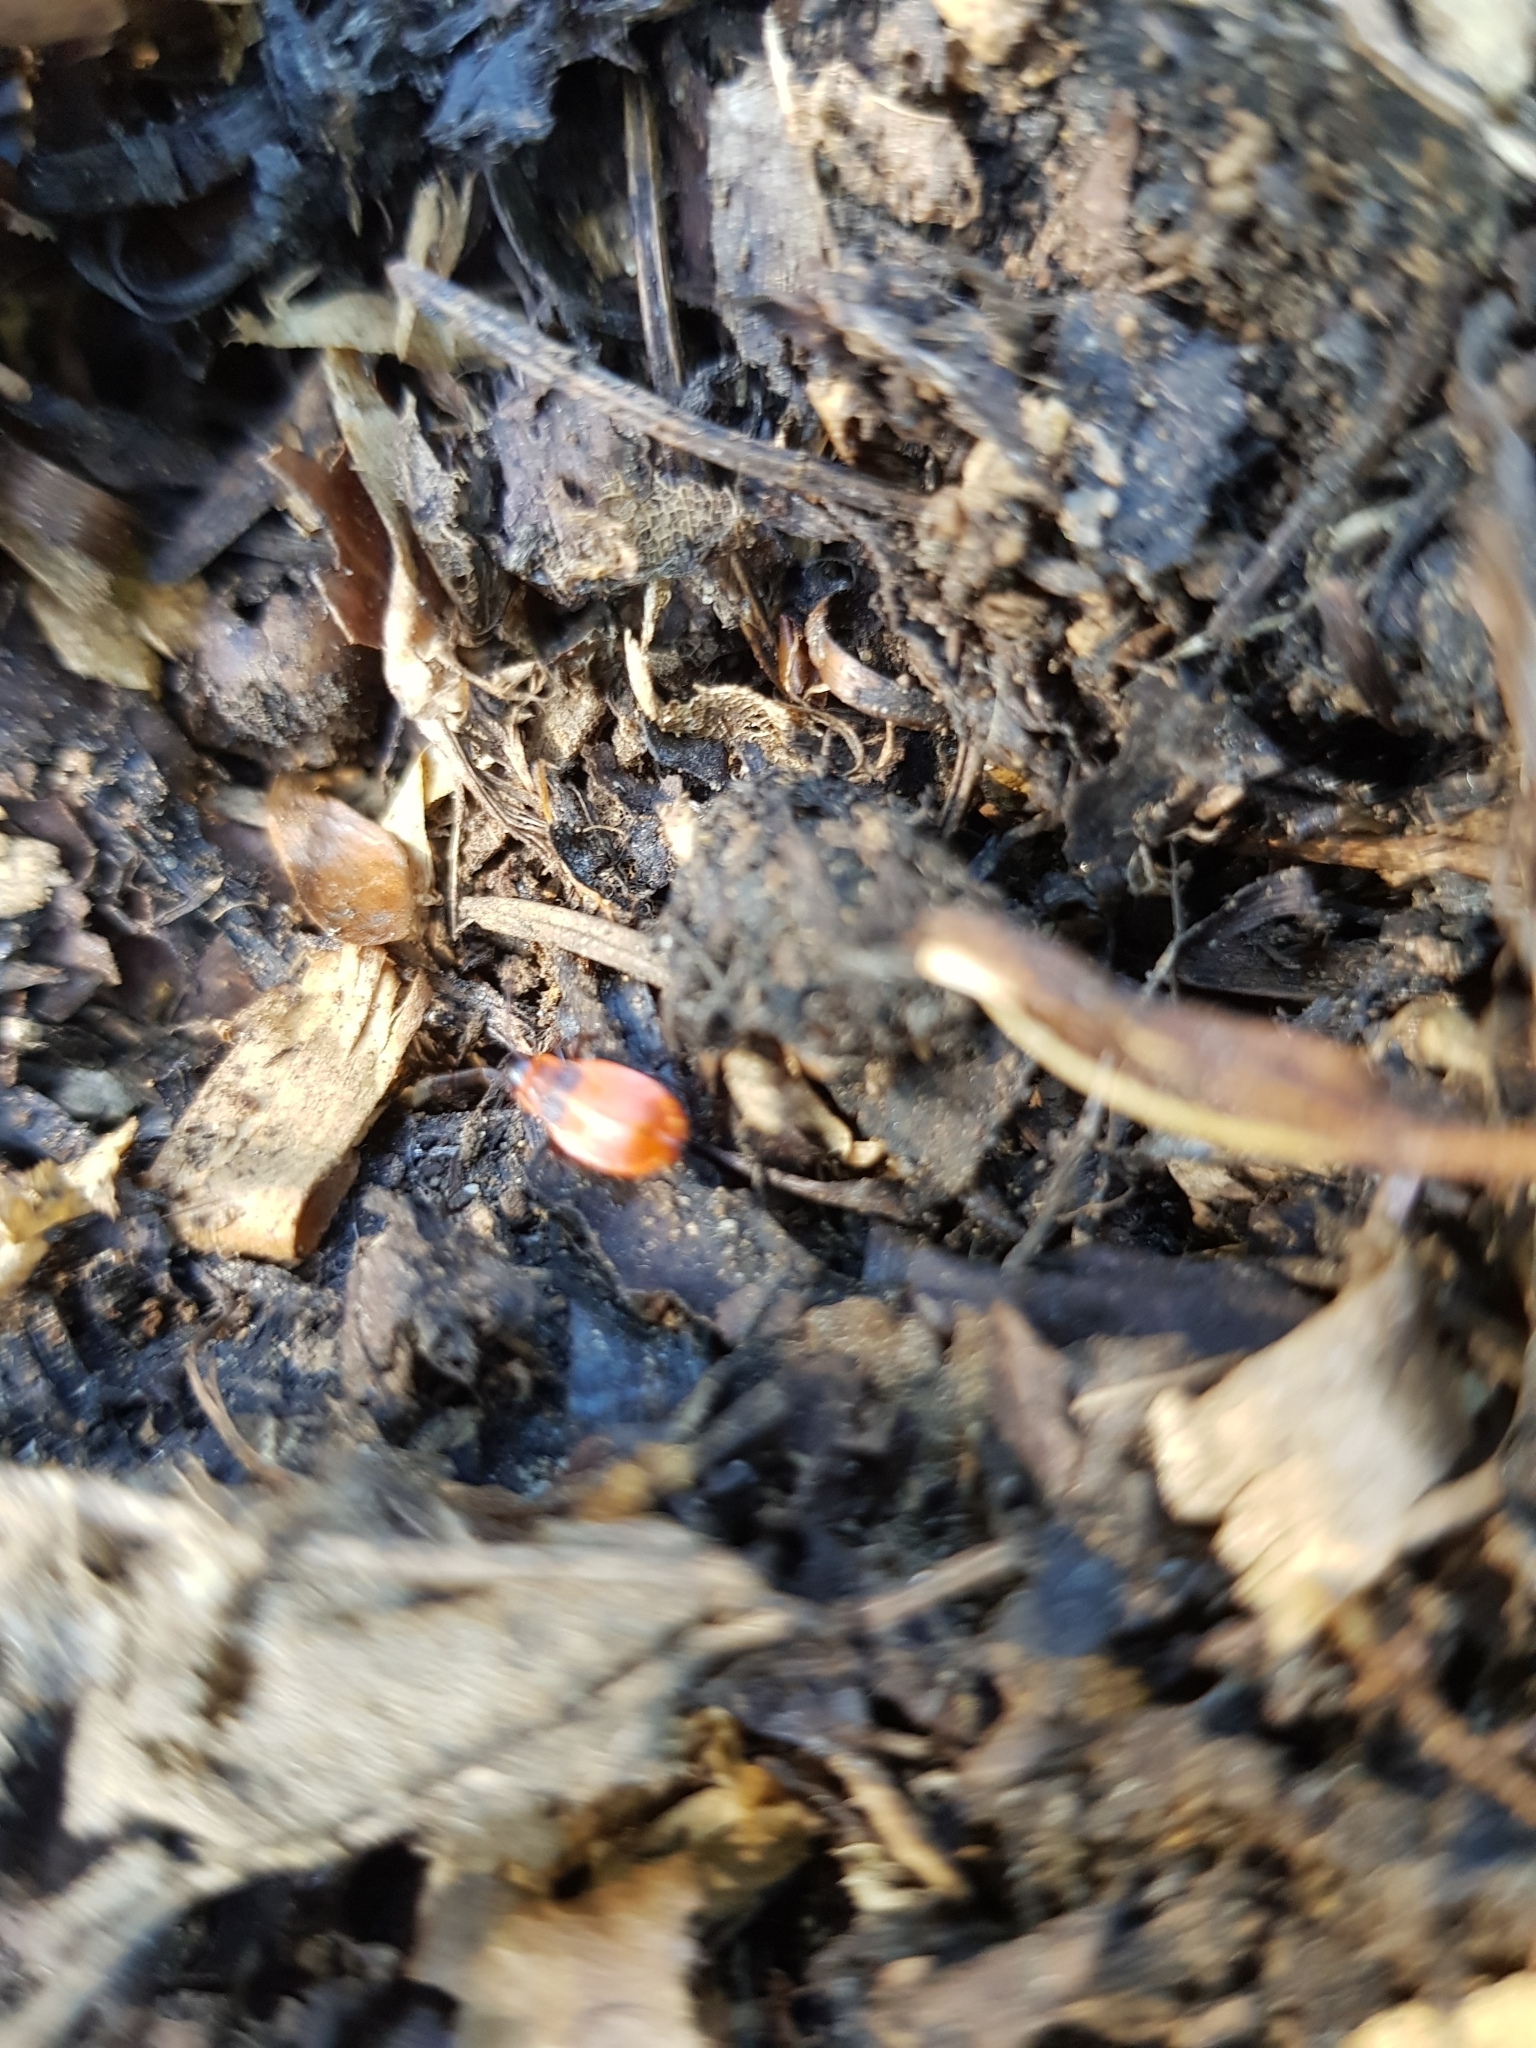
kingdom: Animalia
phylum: Arthropoda
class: Insecta
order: Hemiptera
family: Pyrrhocoridae
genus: Pyrrhocoris
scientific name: Pyrrhocoris apterus
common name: Firebug
